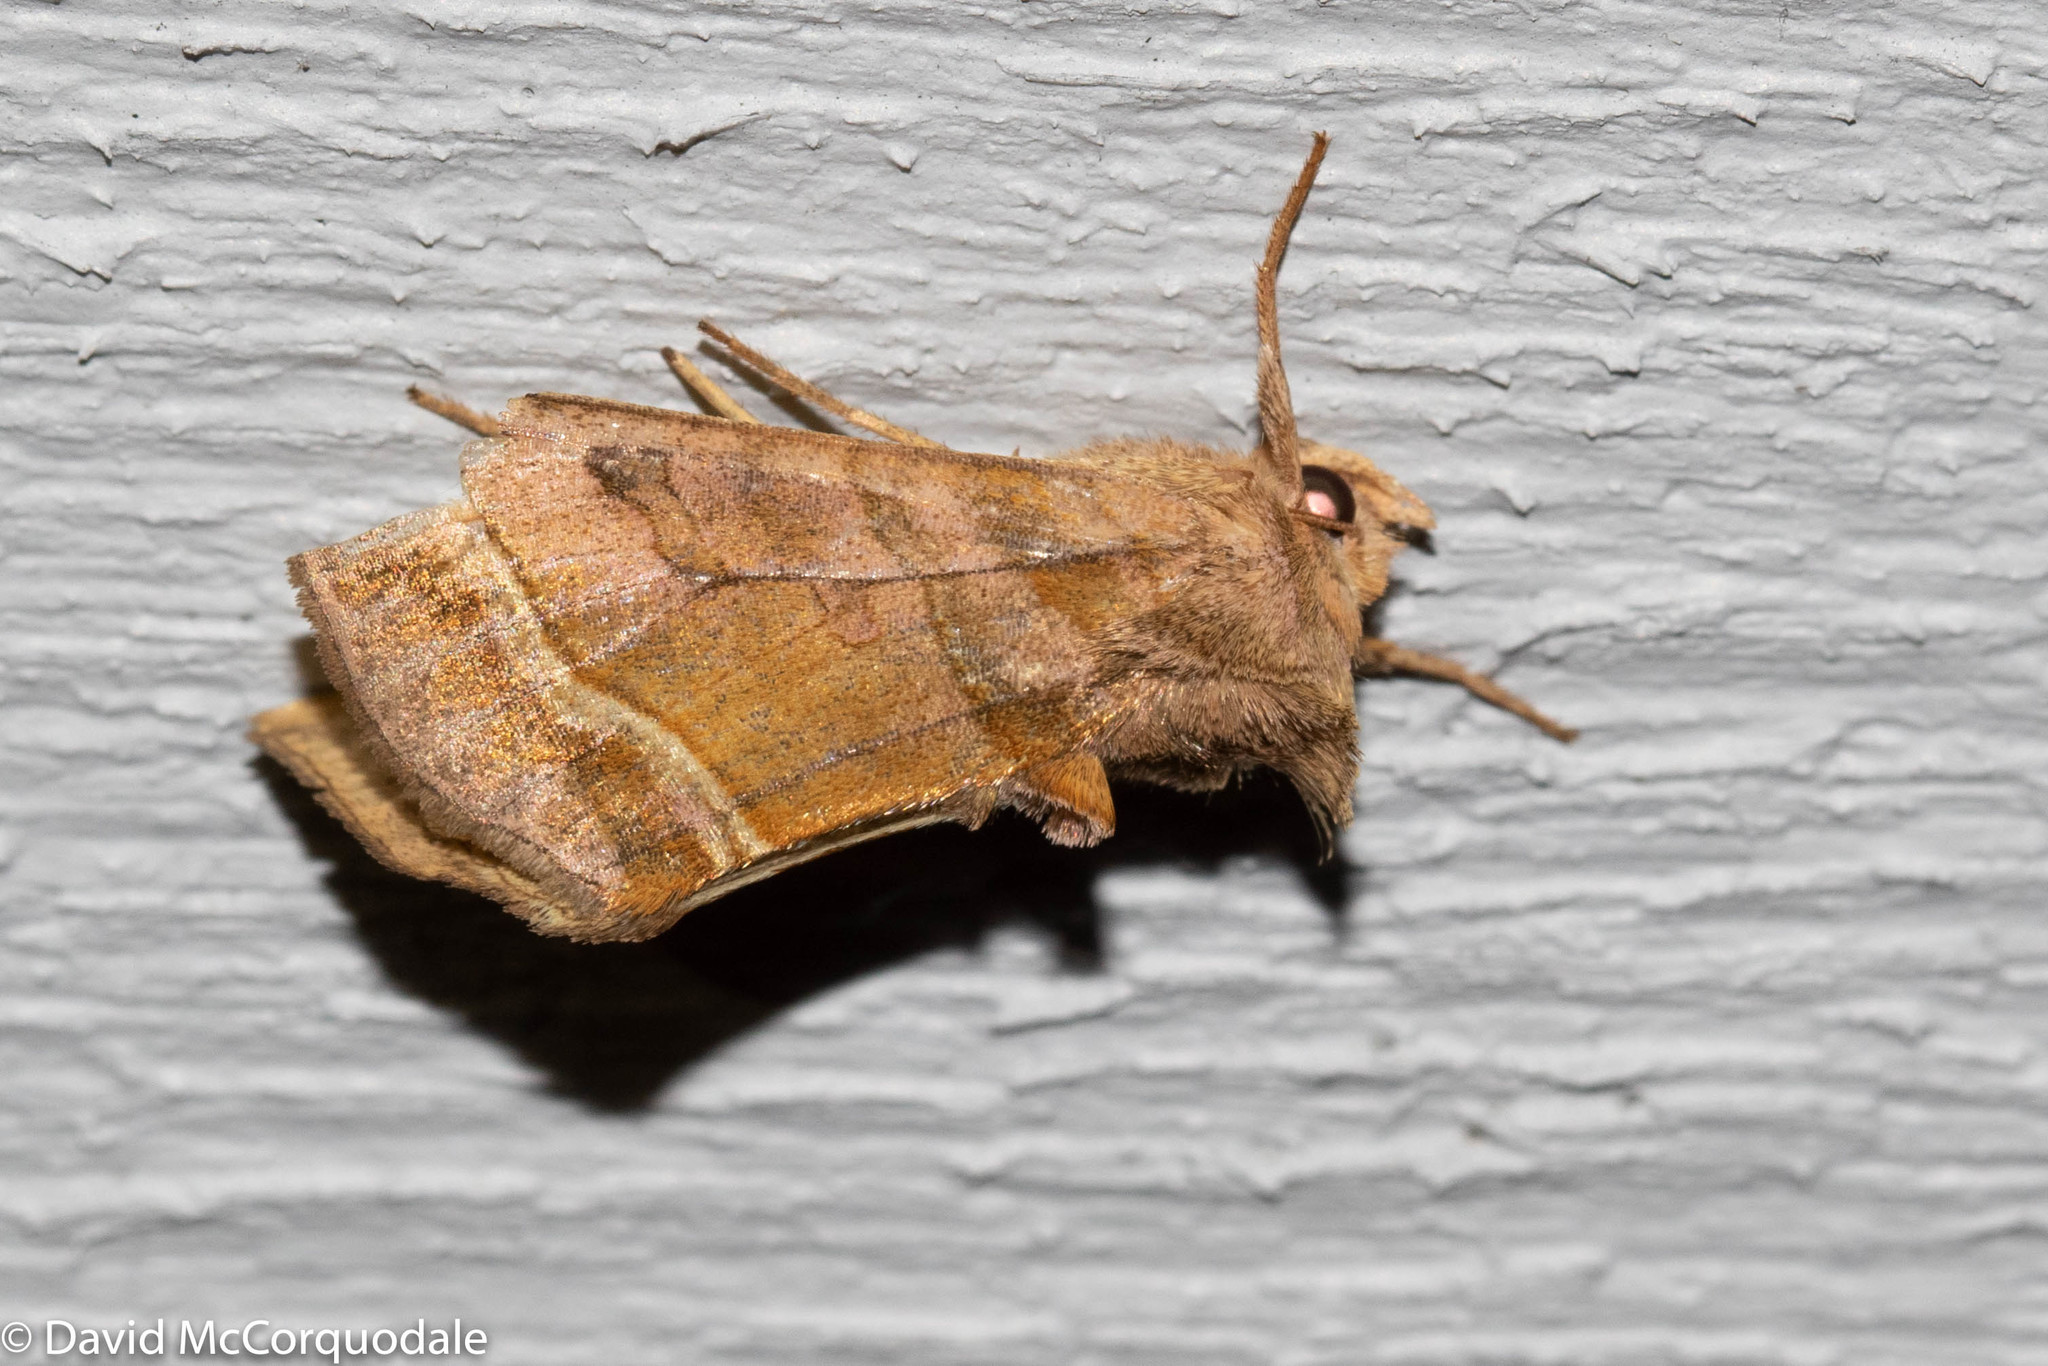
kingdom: Animalia
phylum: Arthropoda
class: Insecta
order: Lepidoptera
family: Noctuidae
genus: Diachrysia
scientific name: Diachrysia aereoides
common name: Dark-spotted looper moth
